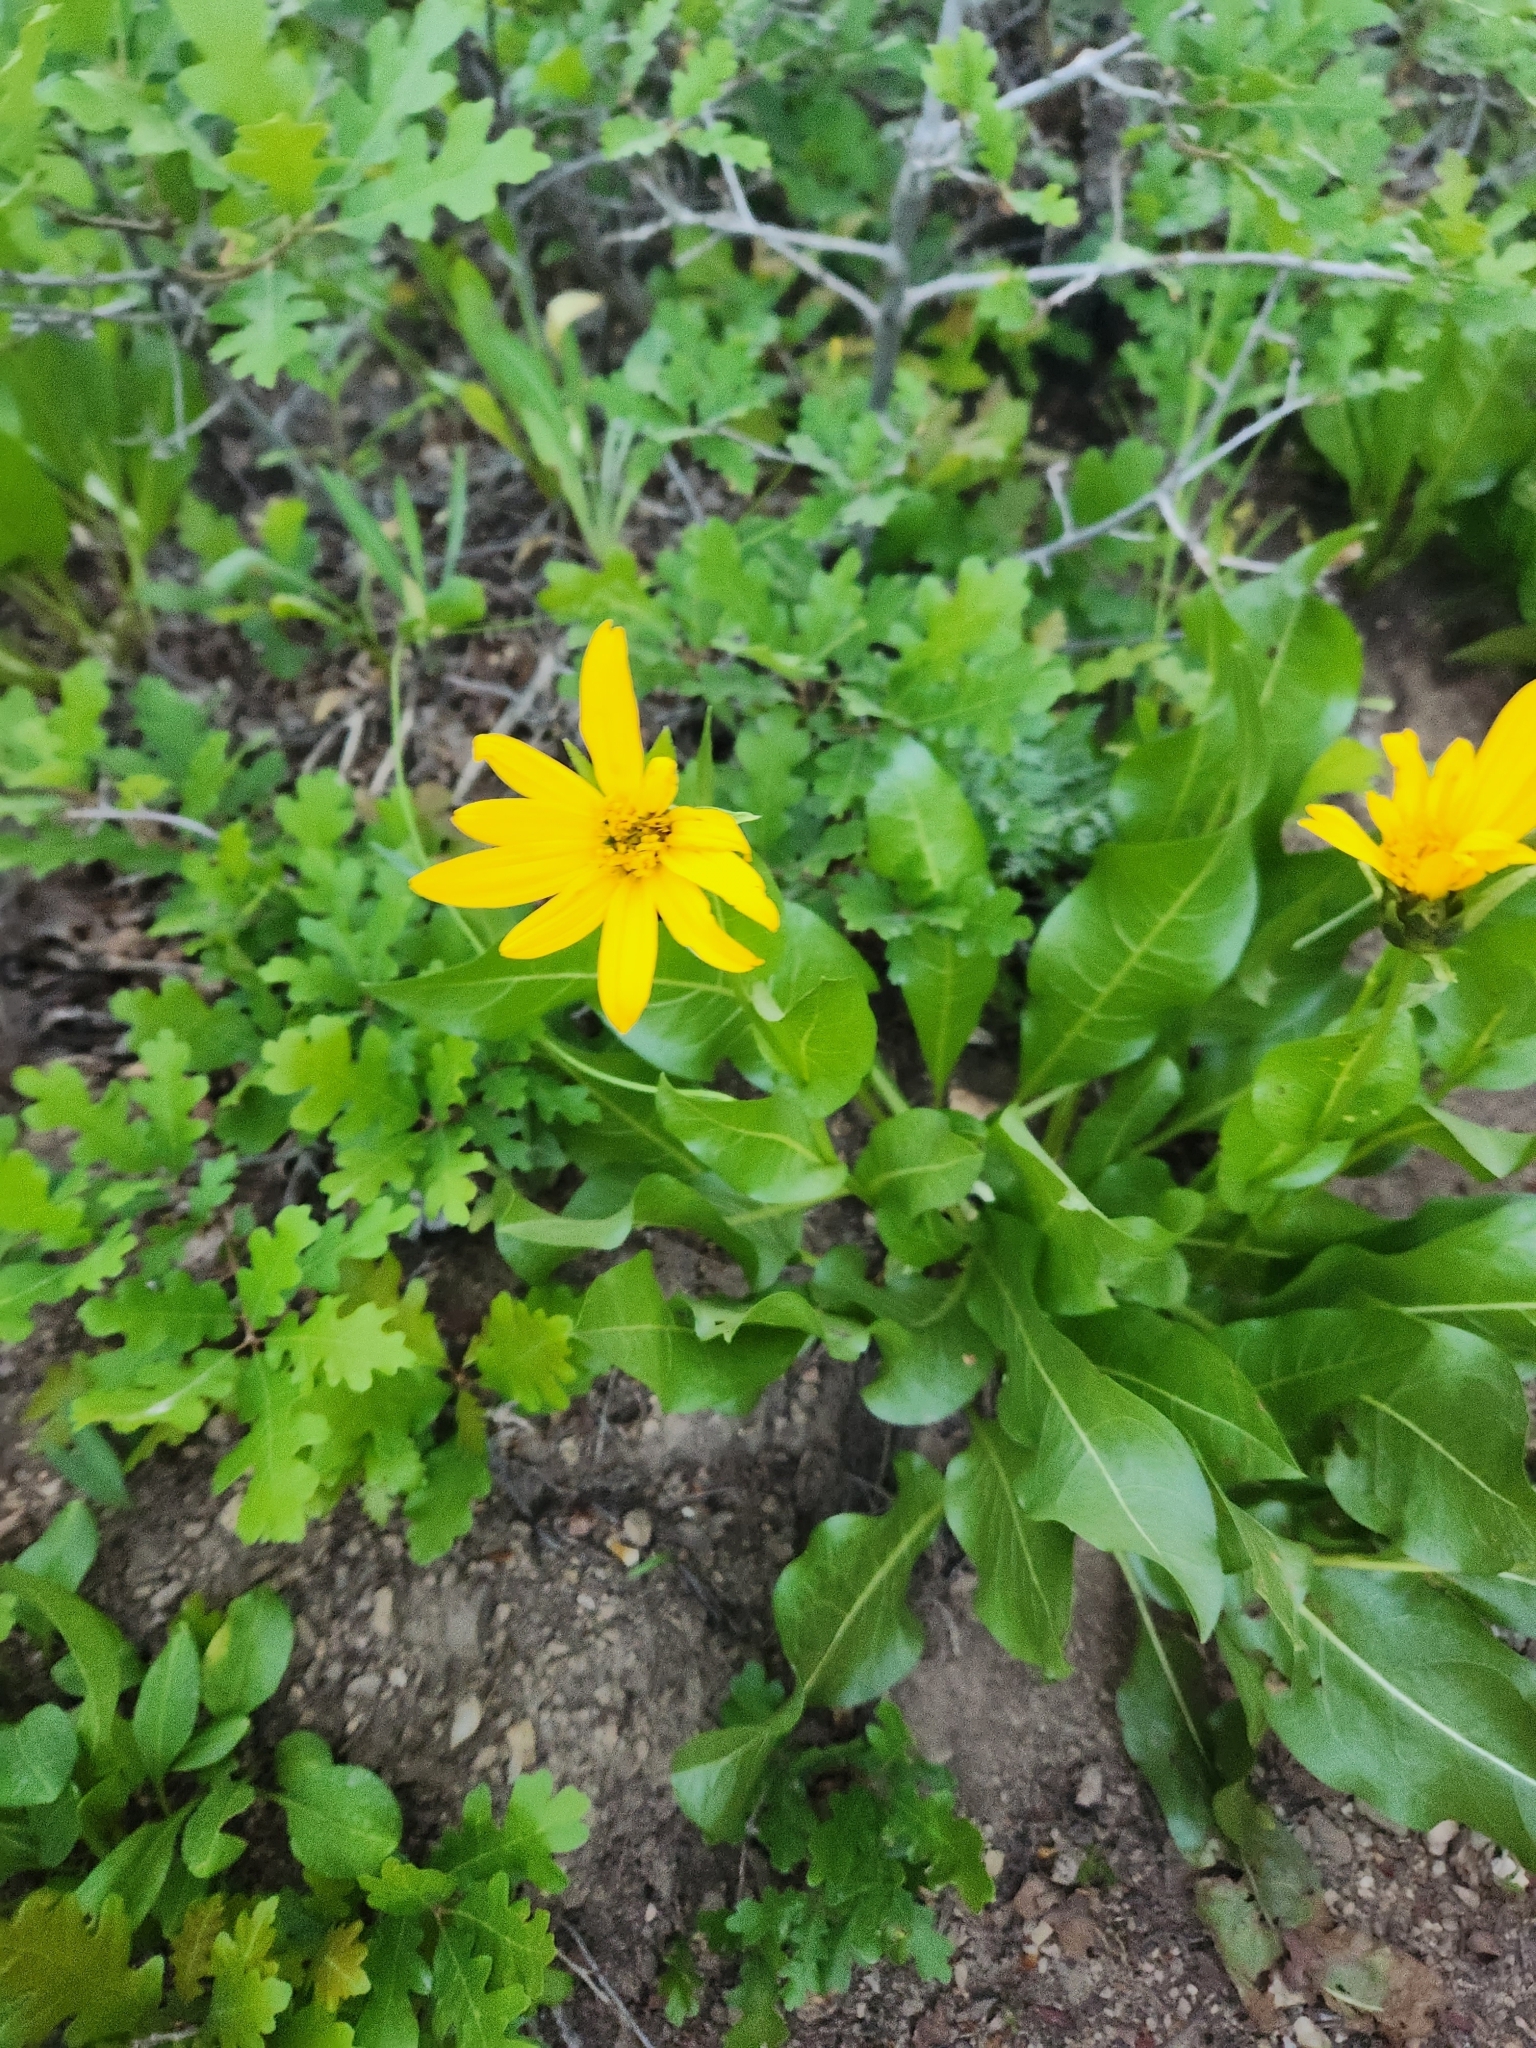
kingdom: Plantae
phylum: Tracheophyta
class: Magnoliopsida
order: Asterales
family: Asteraceae
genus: Wyethia
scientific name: Wyethia amplexicaulis
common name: Northern mule's-ears
